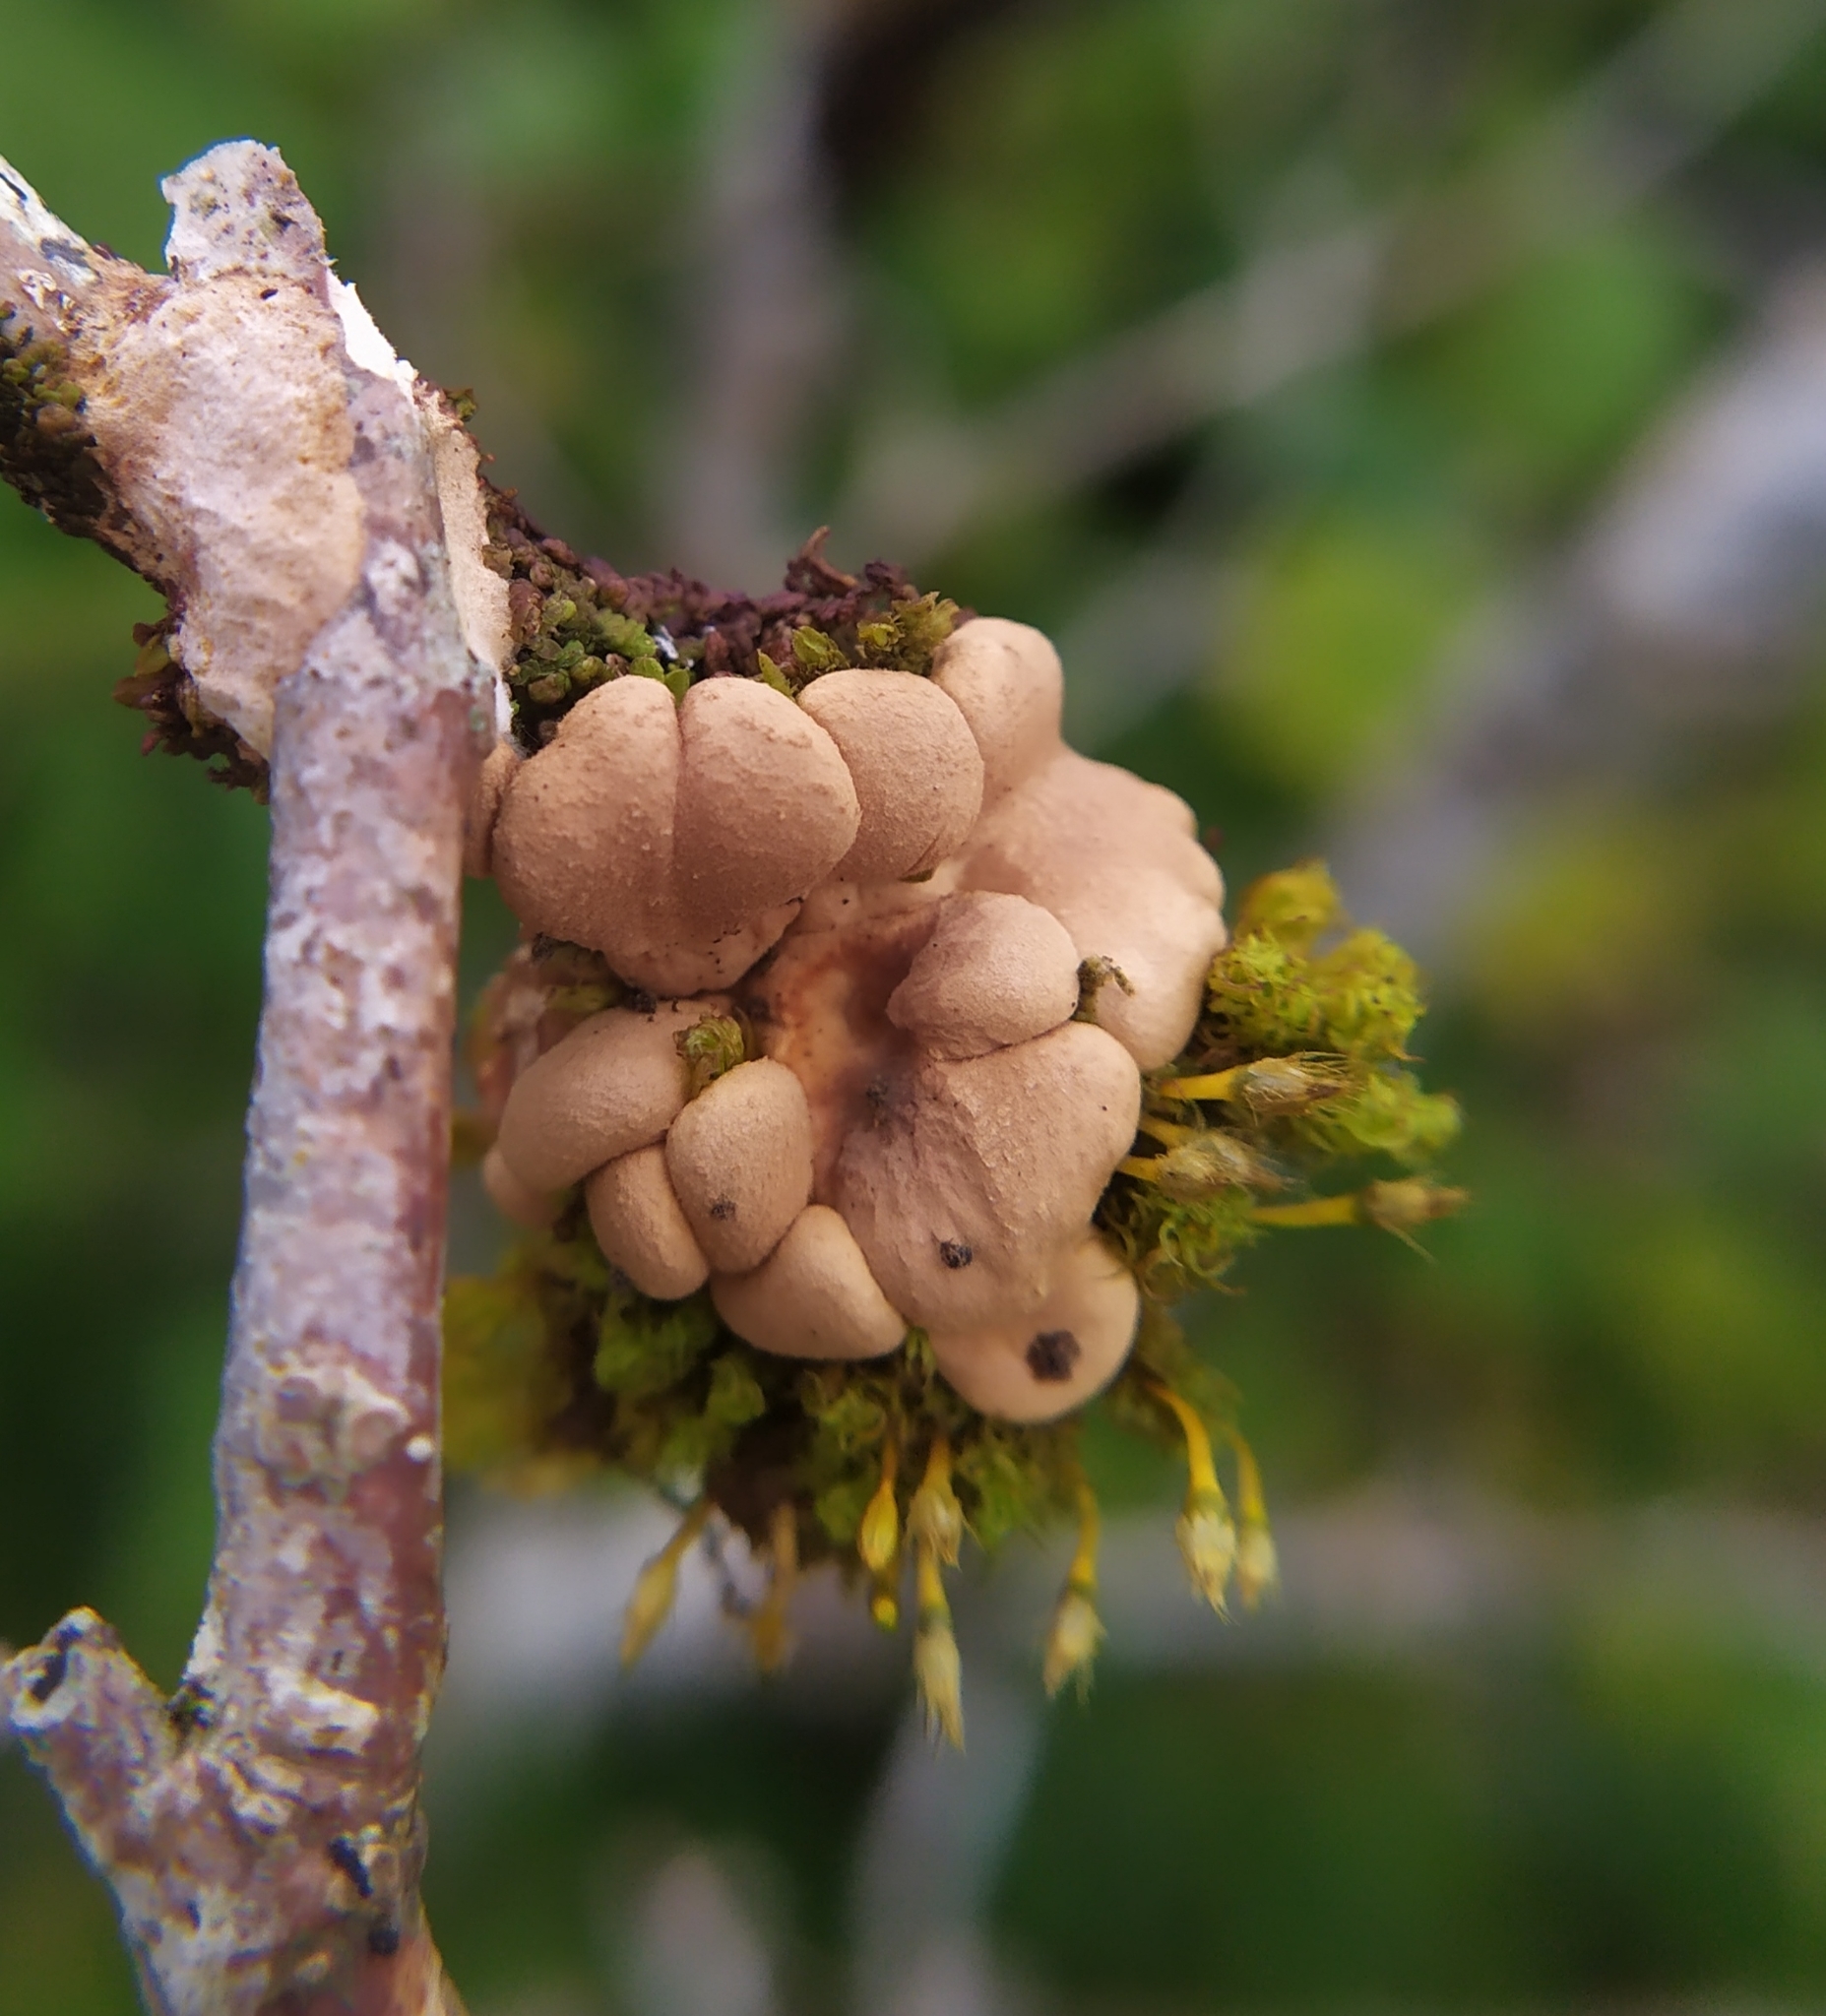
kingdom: Fungi
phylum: Ascomycota
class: Sordariomycetes
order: Hypocreales
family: Hypocreaceae
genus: Hypocreopsis
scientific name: Hypocreopsis rhododendri
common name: Hazel gloves
